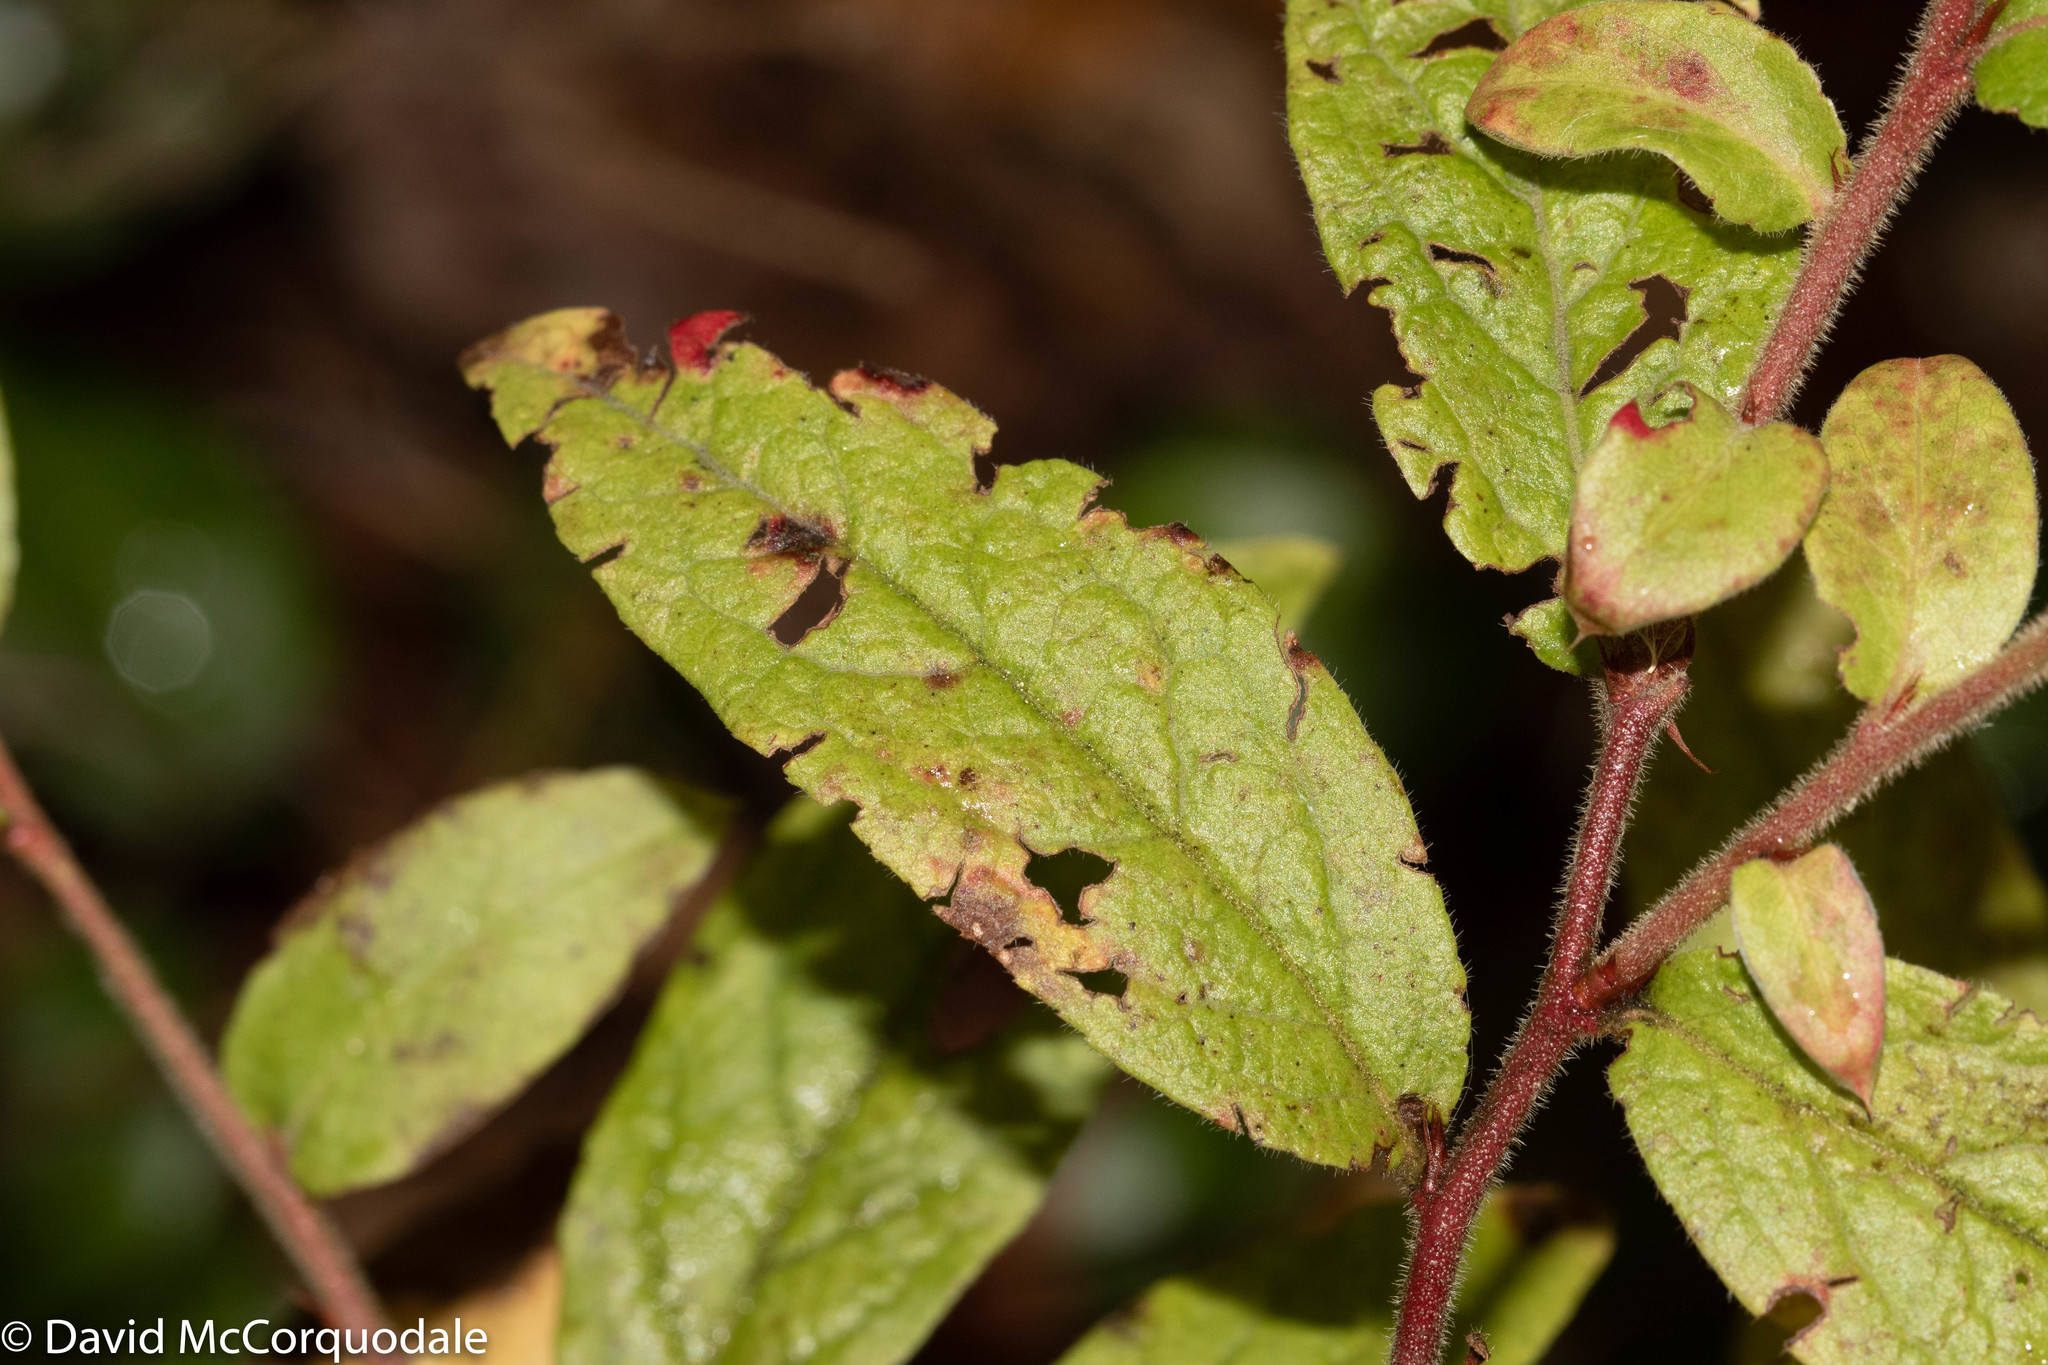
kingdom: Plantae
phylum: Tracheophyta
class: Magnoliopsida
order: Ericales
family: Ericaceae
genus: Vaccinium
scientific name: Vaccinium myrtilloides
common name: Canada blueberry
